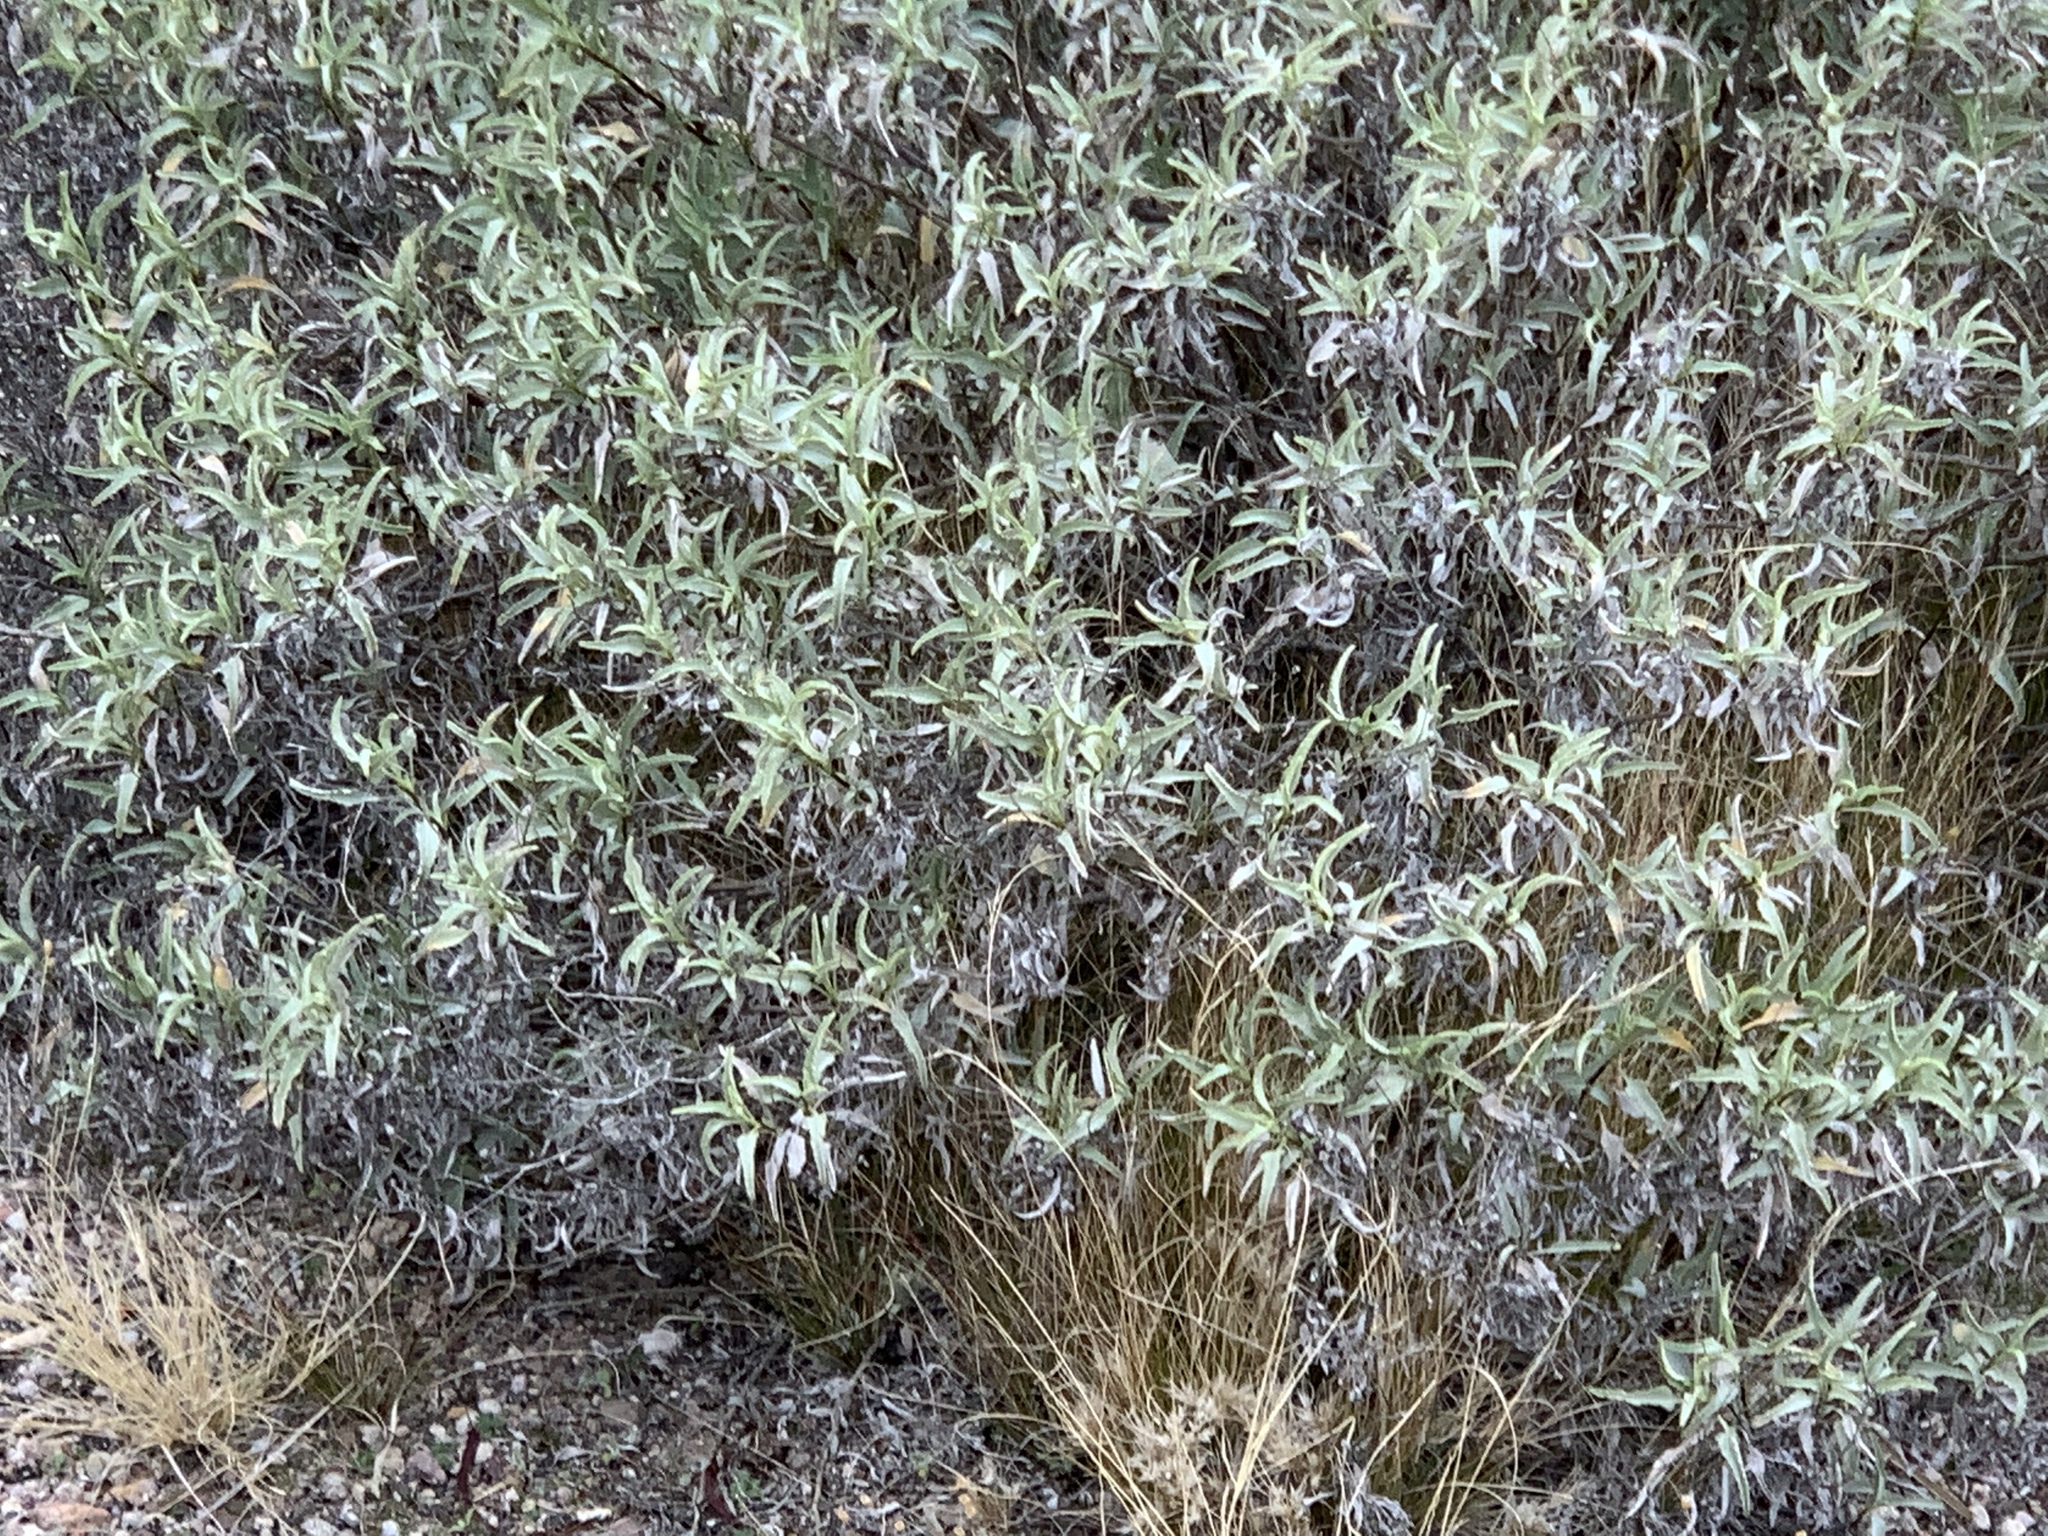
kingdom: Plantae
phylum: Tracheophyta
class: Magnoliopsida
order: Asterales
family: Asteraceae
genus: Ambrosia
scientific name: Ambrosia deltoidea
